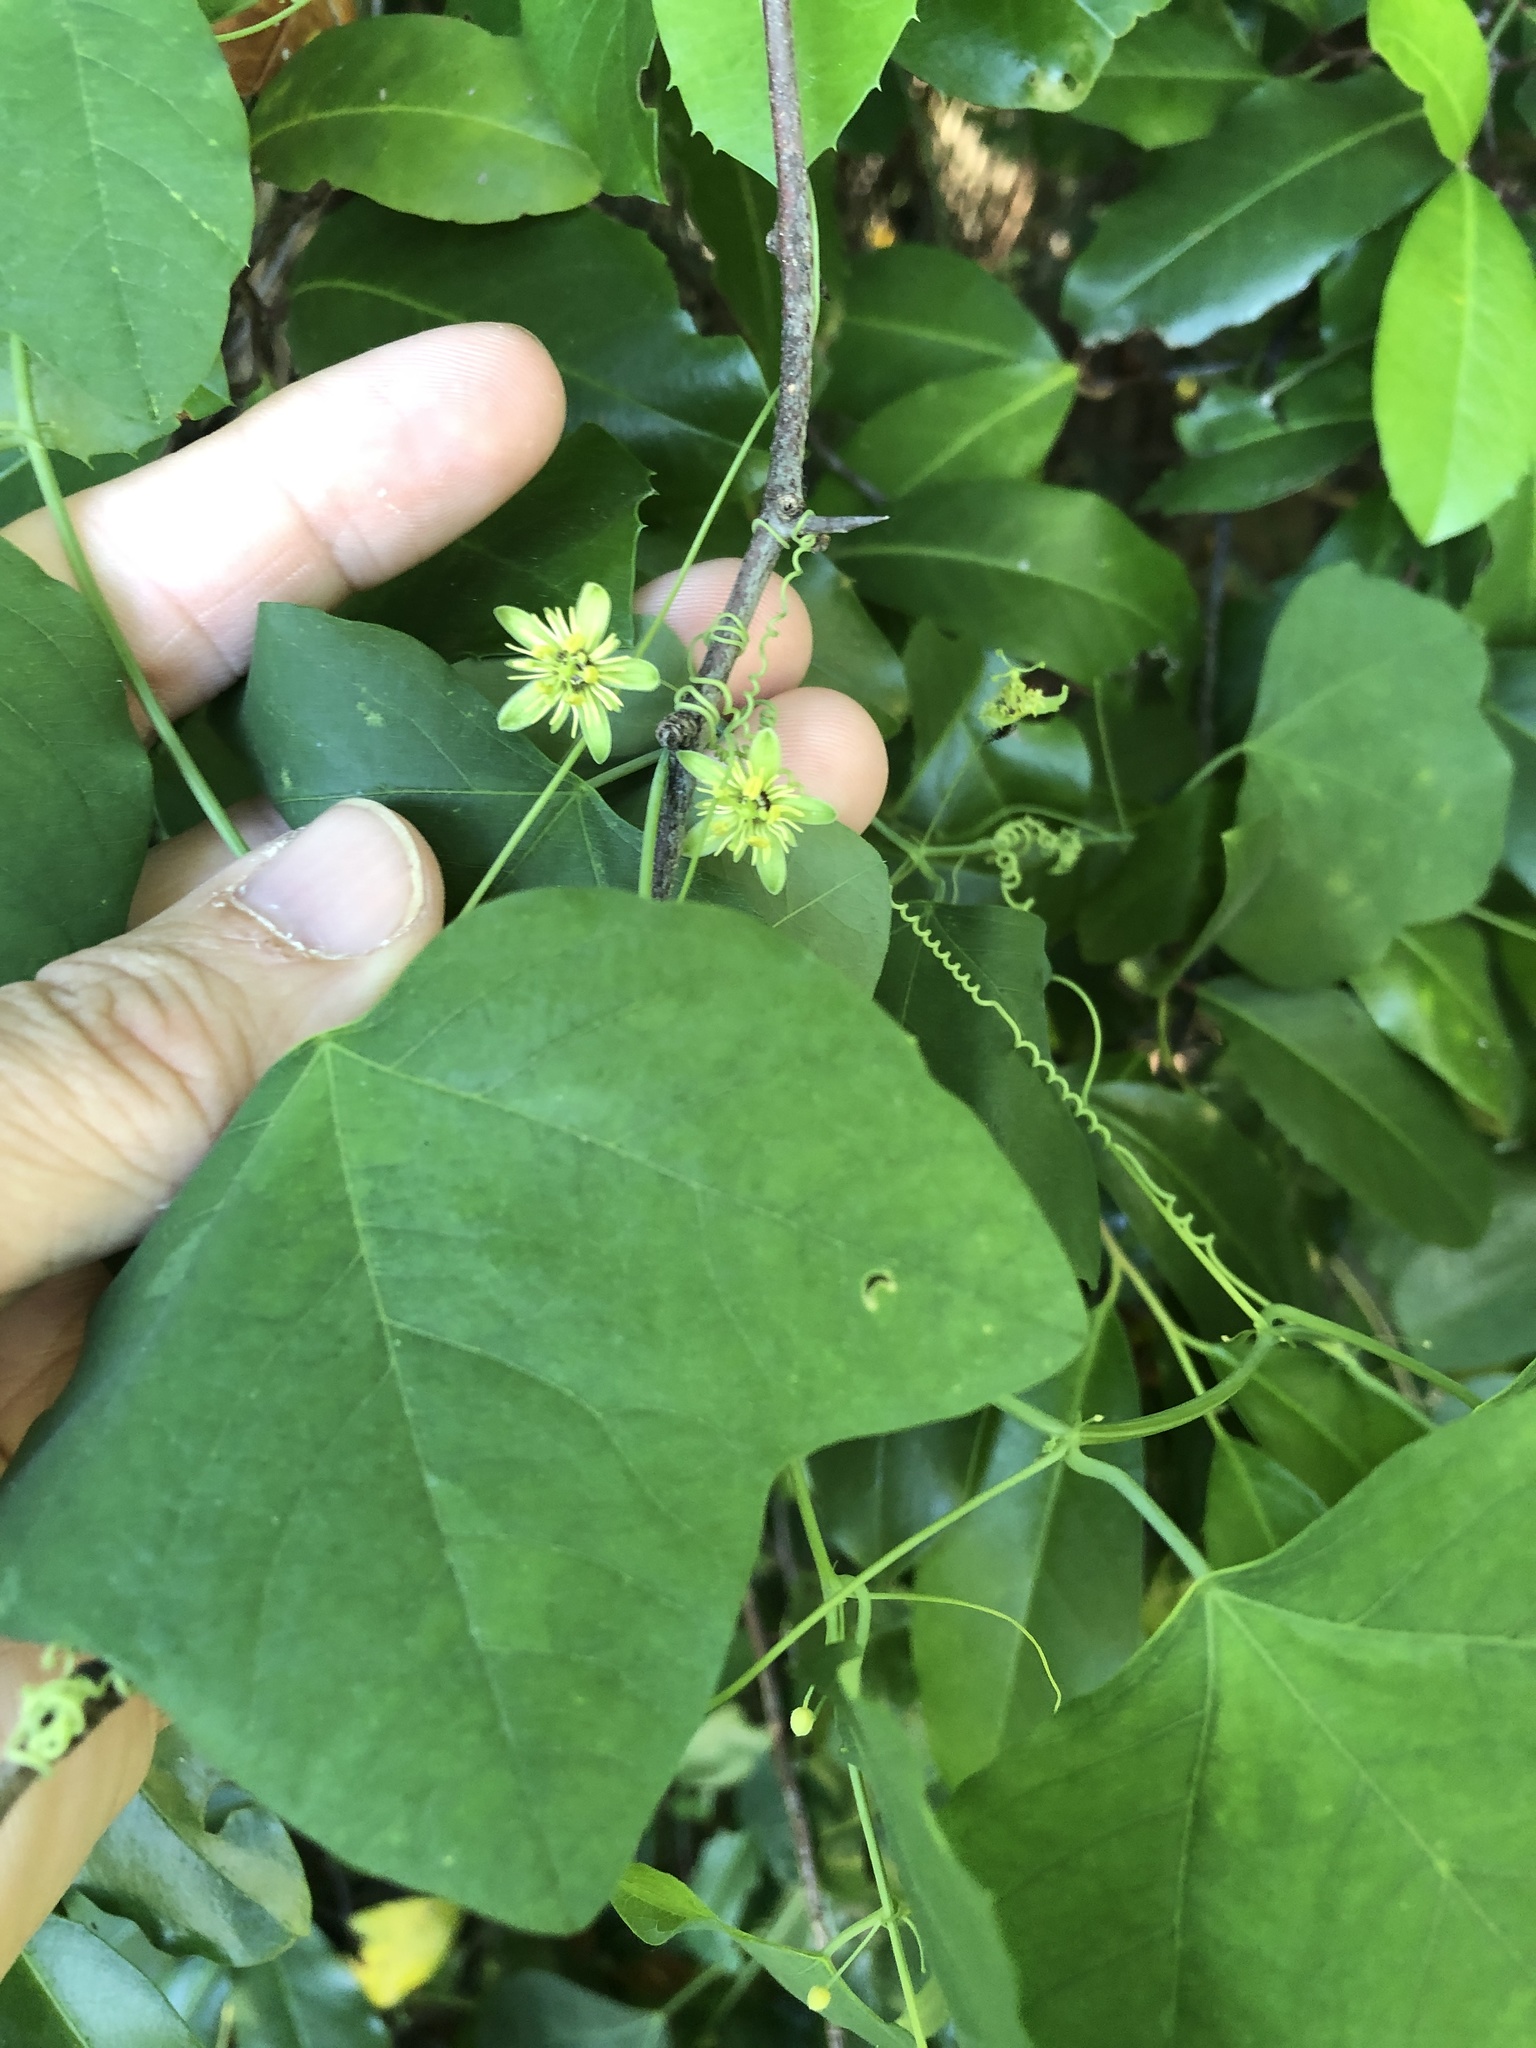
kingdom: Plantae
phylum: Tracheophyta
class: Magnoliopsida
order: Malpighiales
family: Passifloraceae
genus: Passiflora
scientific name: Passiflora lutea
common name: Yellow passionflower
